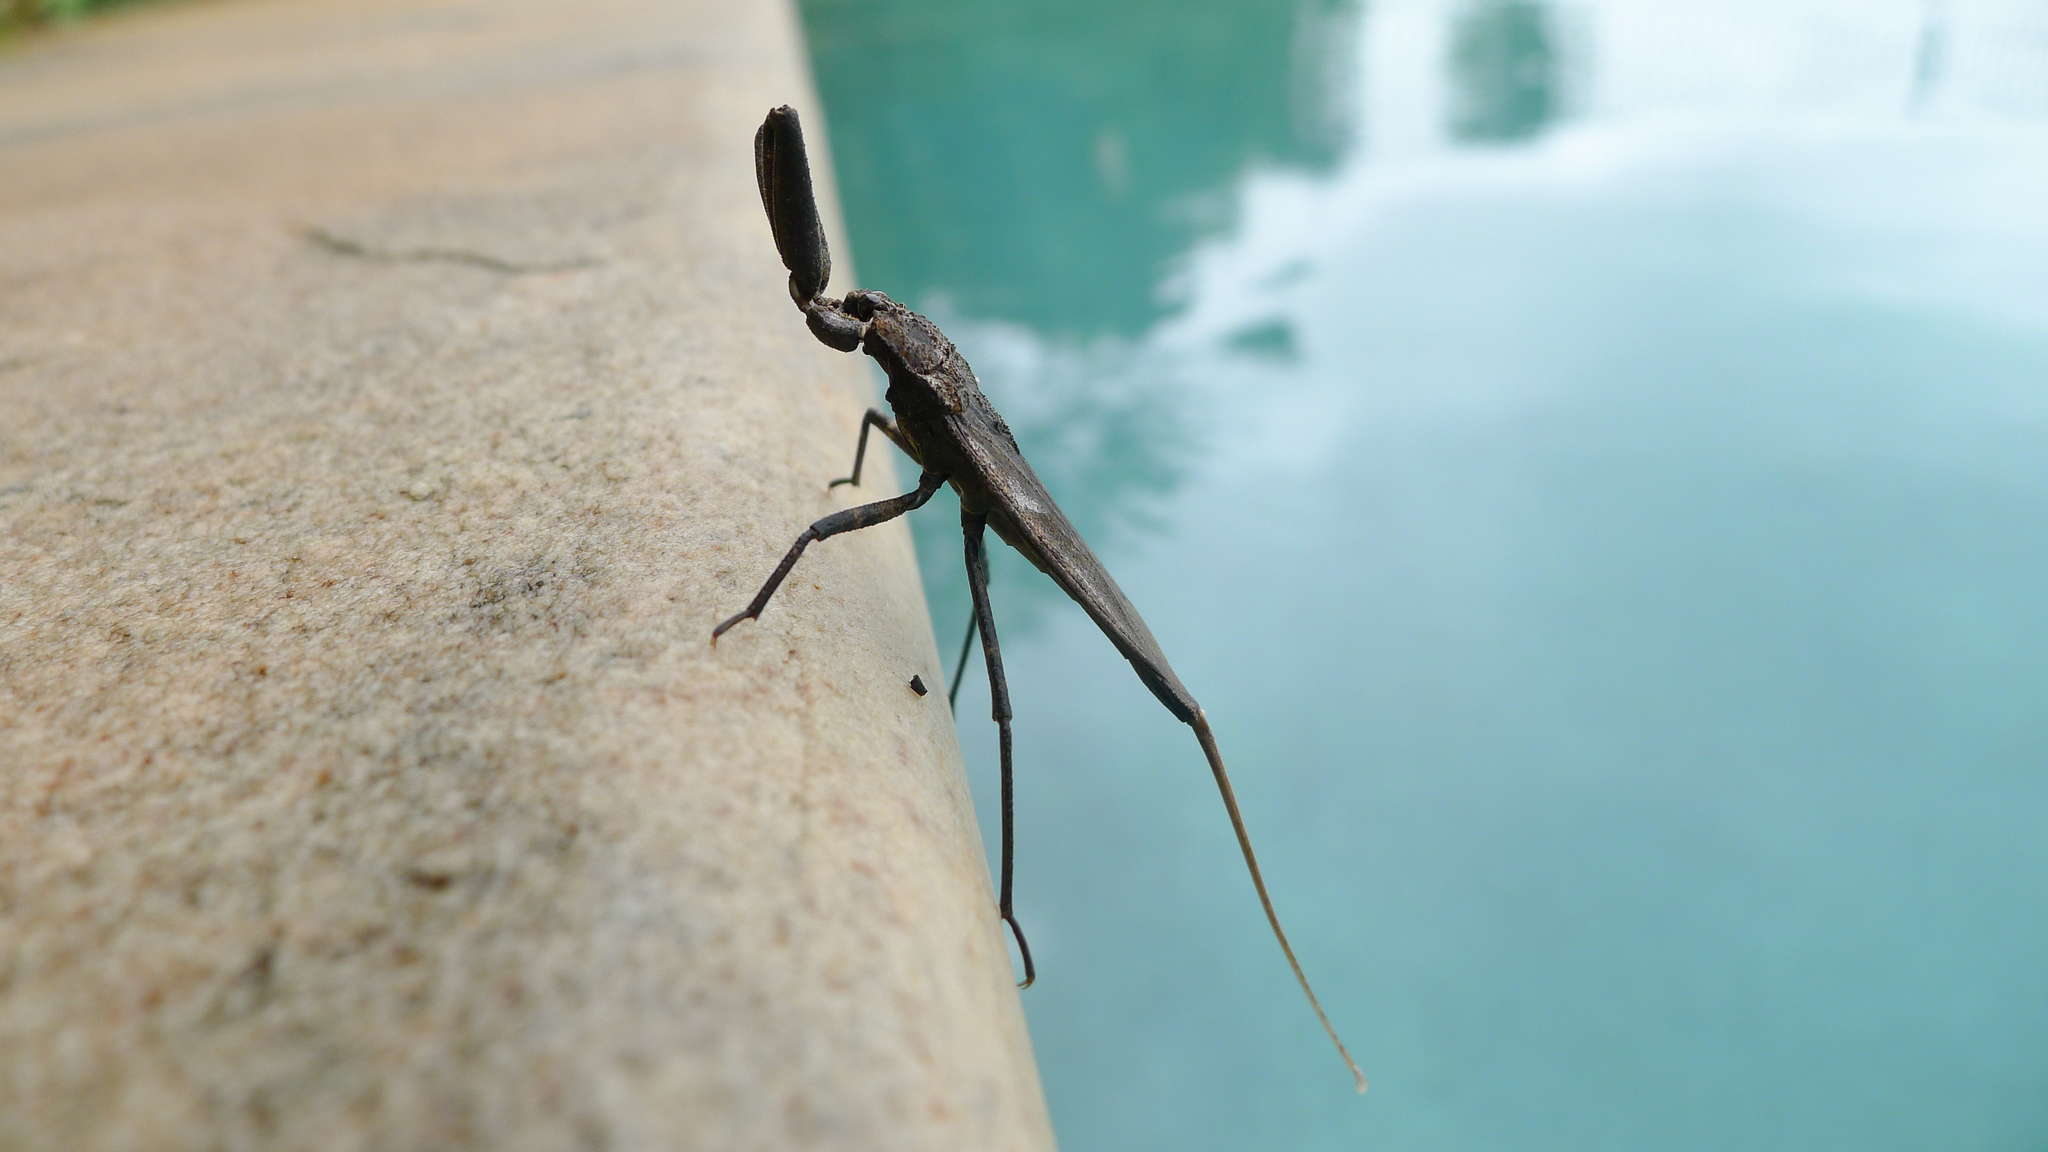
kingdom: Animalia
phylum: Arthropoda
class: Insecta
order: Hemiptera
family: Nepidae
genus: Laccotrephes
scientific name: Laccotrephes tristis
